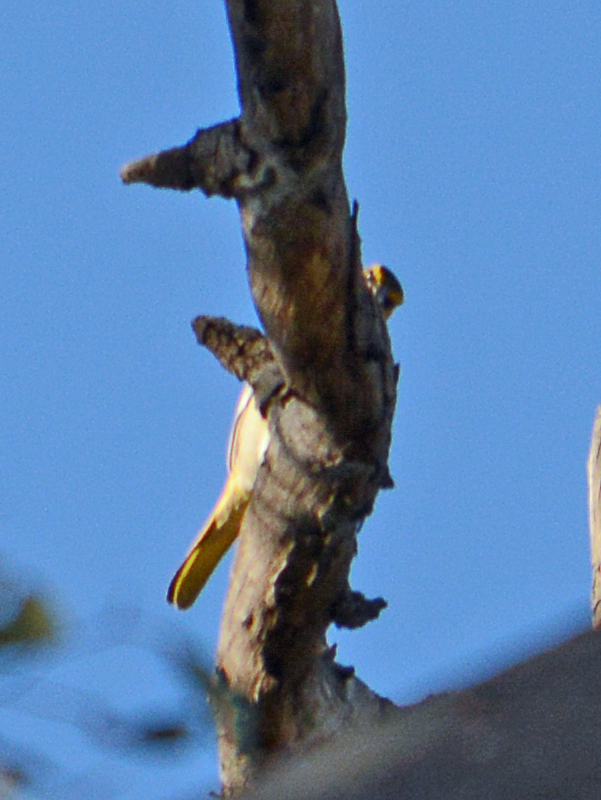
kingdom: Animalia
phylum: Chordata
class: Aves
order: Passeriformes
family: Icteridae
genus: Icterus
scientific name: Icterus bullockii
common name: Bullock's oriole
